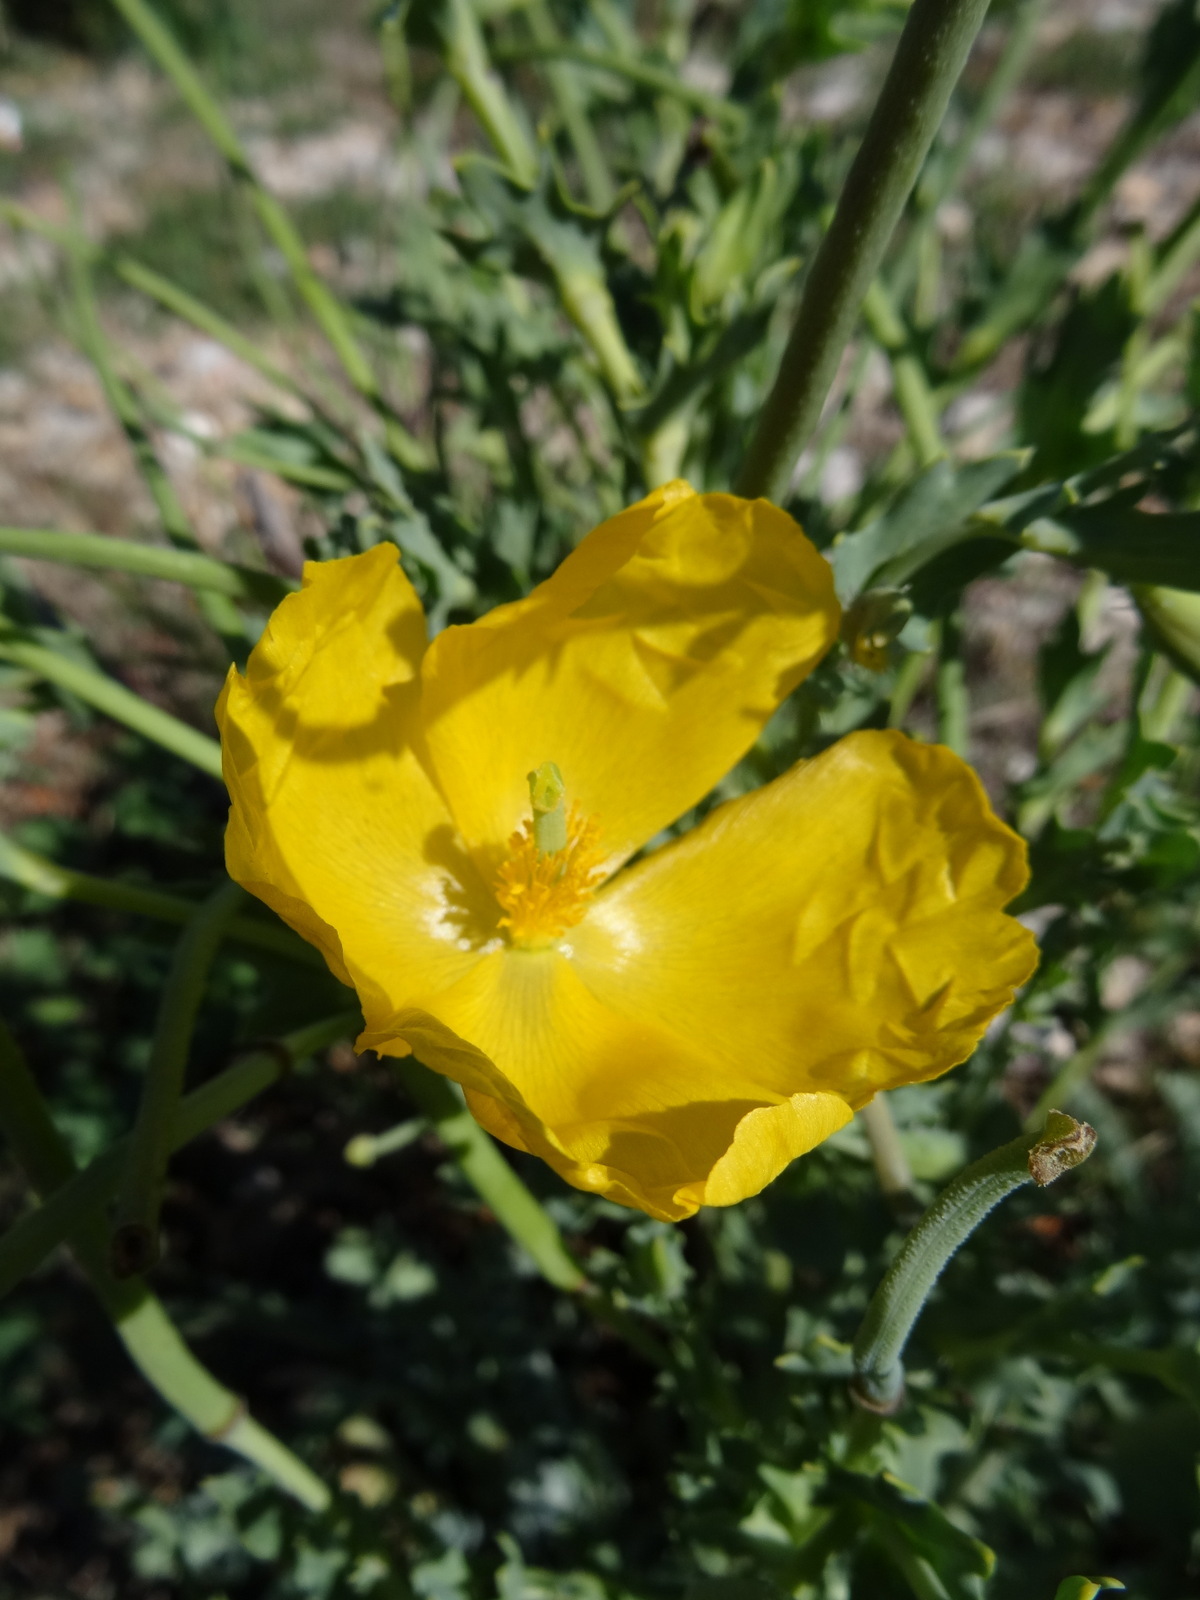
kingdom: Plantae
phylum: Tracheophyta
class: Magnoliopsida
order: Ranunculales
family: Papaveraceae
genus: Glaucium
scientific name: Glaucium flavum
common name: Yellow horned-poppy
